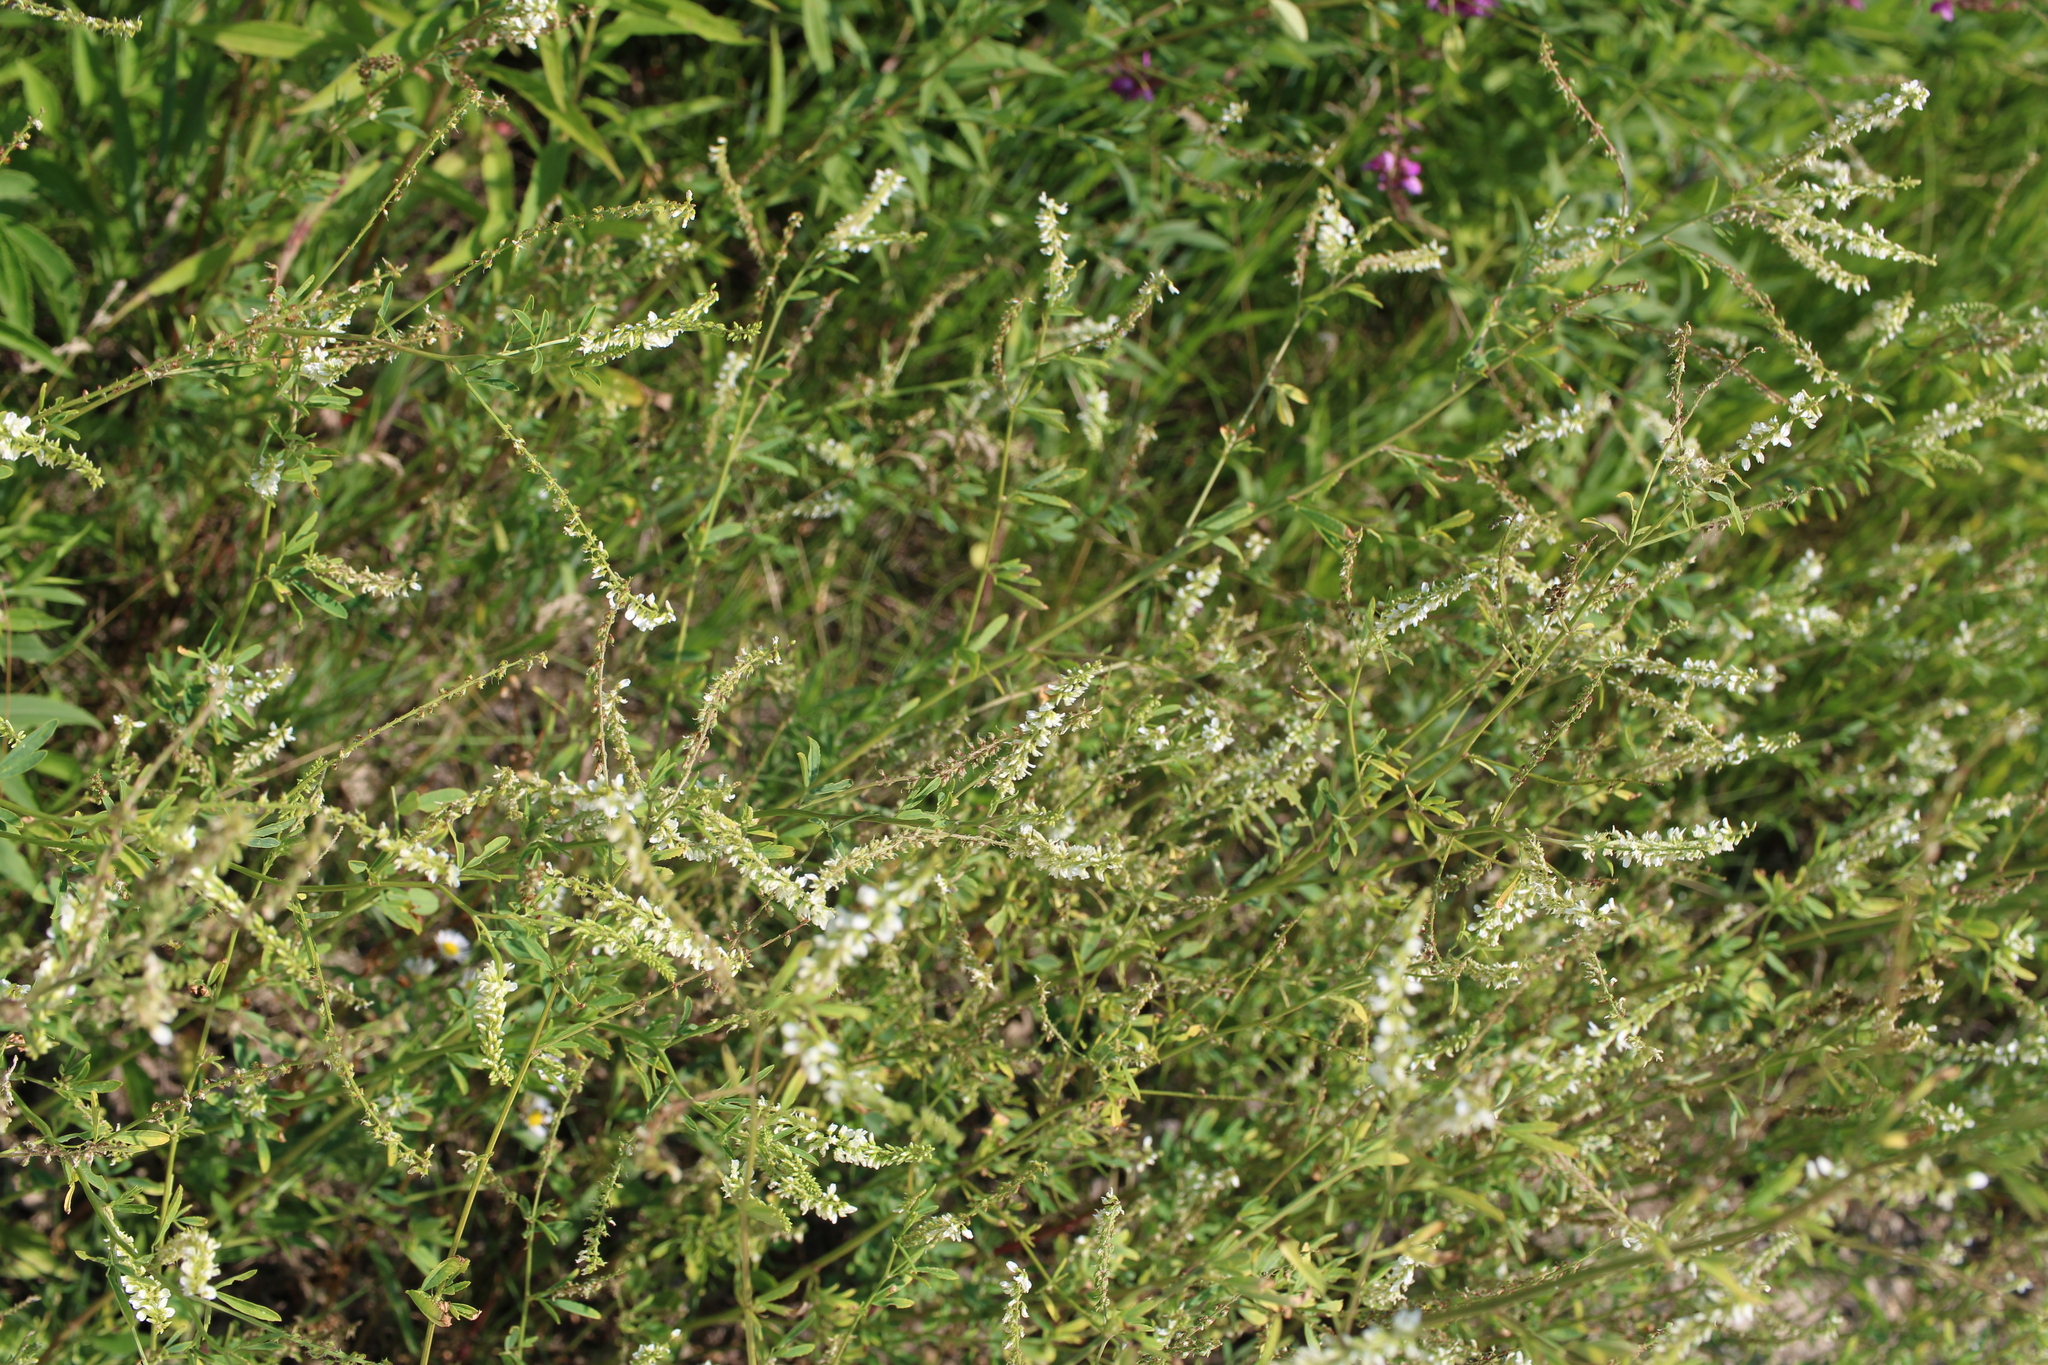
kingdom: Plantae
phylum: Tracheophyta
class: Magnoliopsida
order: Fabales
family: Fabaceae
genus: Melilotus
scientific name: Melilotus albus
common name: White melilot
